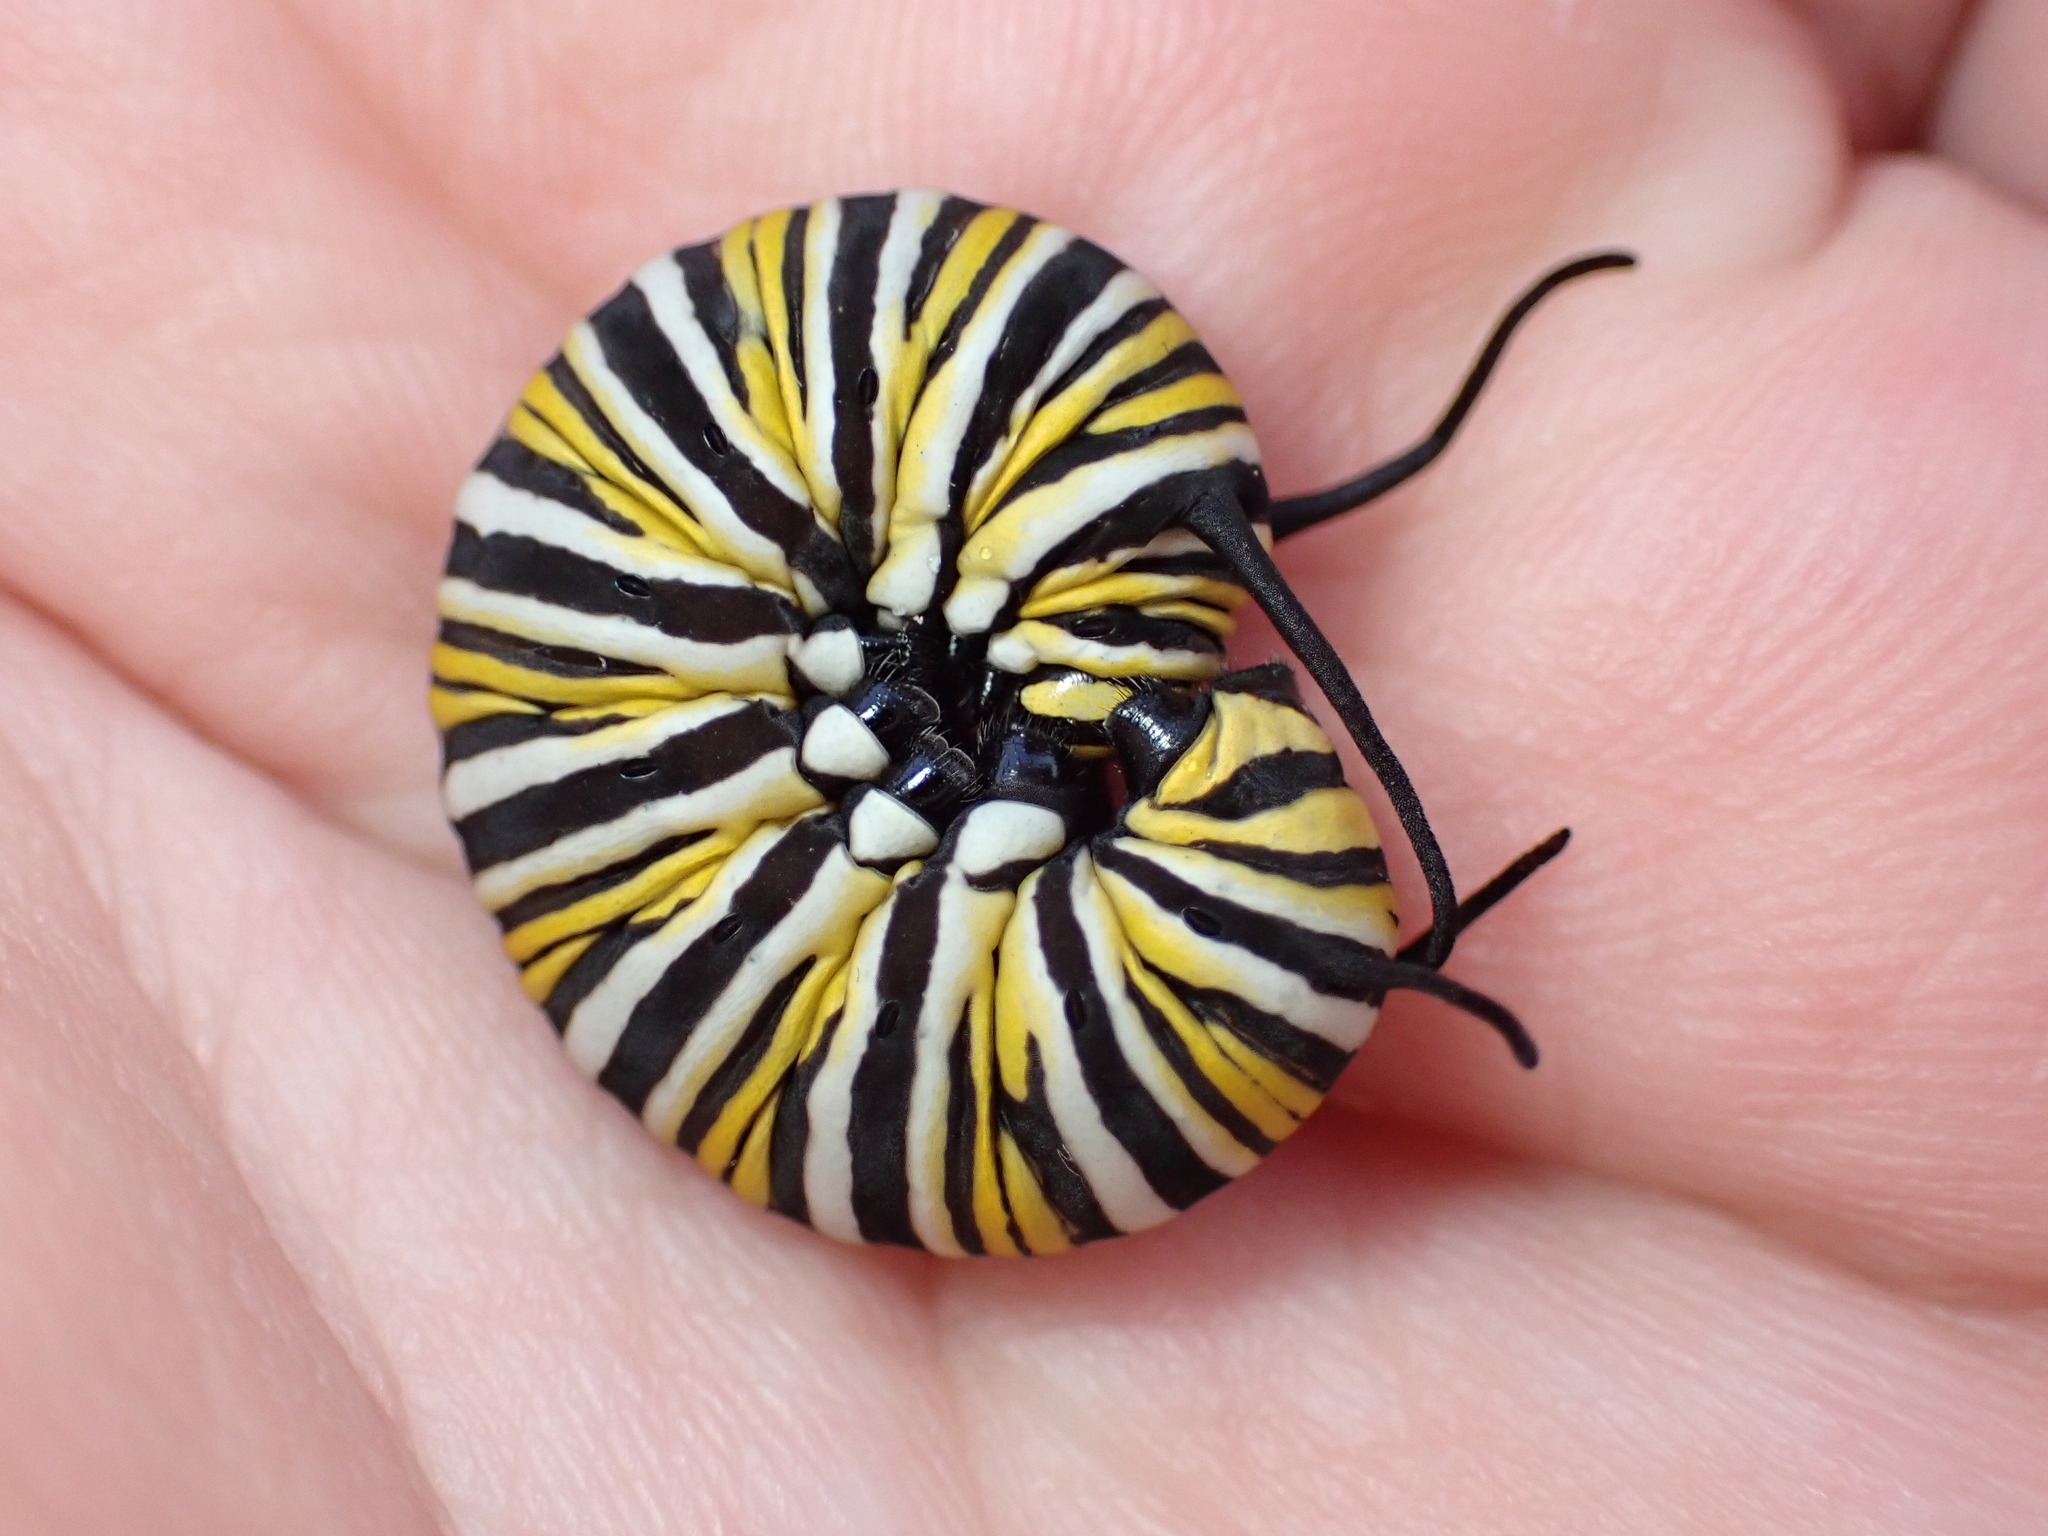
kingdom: Animalia
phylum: Arthropoda
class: Insecta
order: Lepidoptera
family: Nymphalidae
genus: Danaus
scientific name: Danaus plexippus
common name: Monarch
